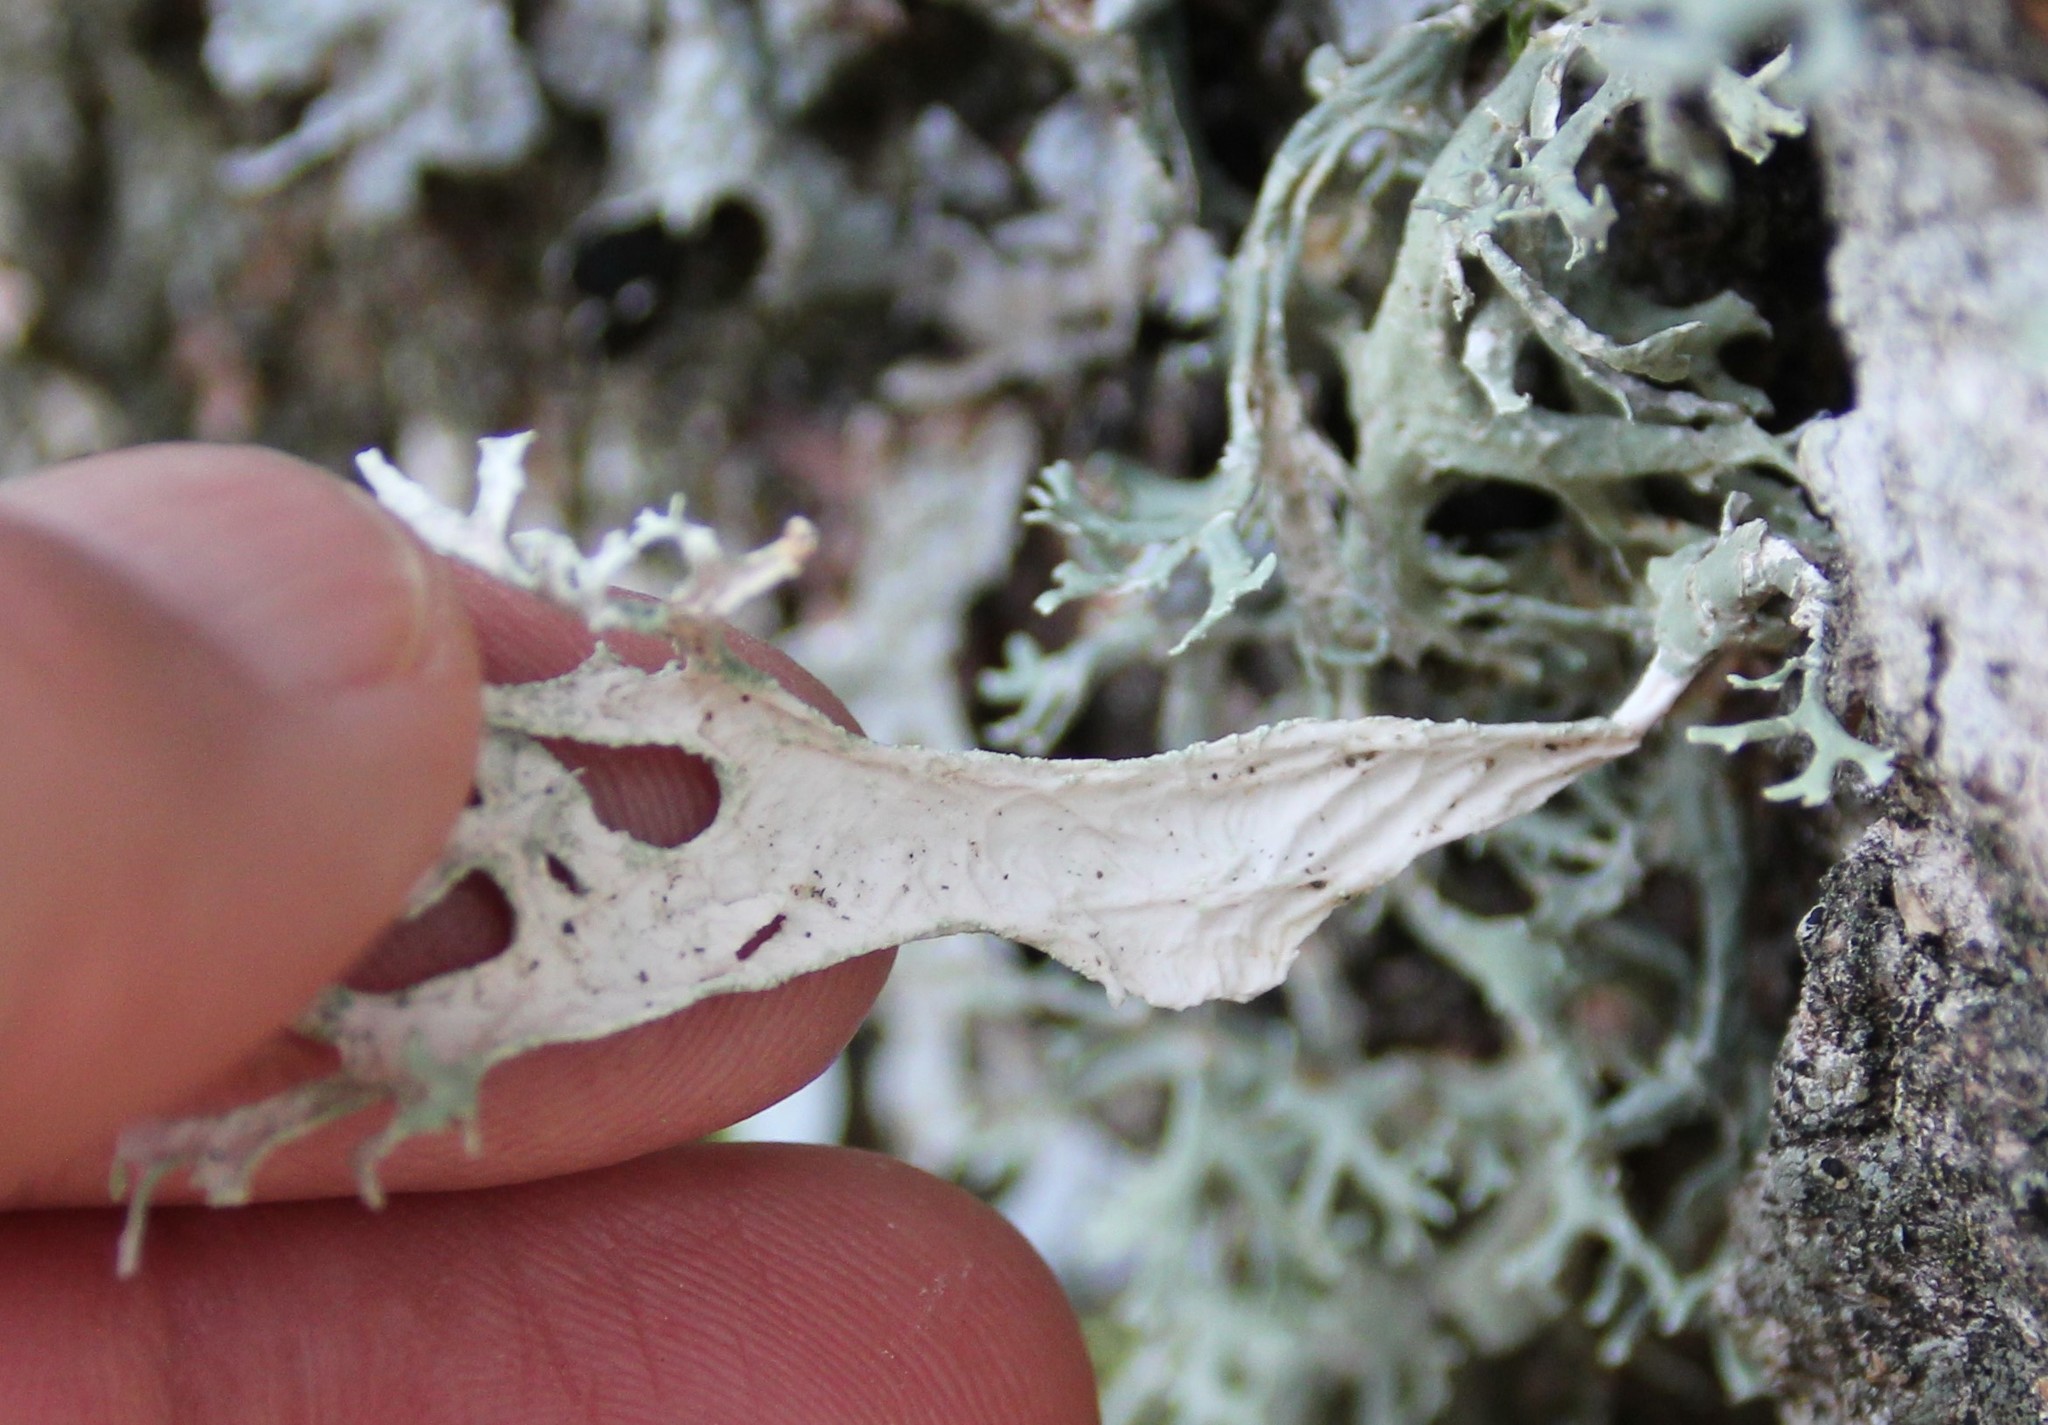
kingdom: Fungi
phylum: Ascomycota
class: Lecanoromycetes
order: Lecanorales
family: Parmeliaceae
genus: Evernia
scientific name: Evernia prunastri
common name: Oak moss
